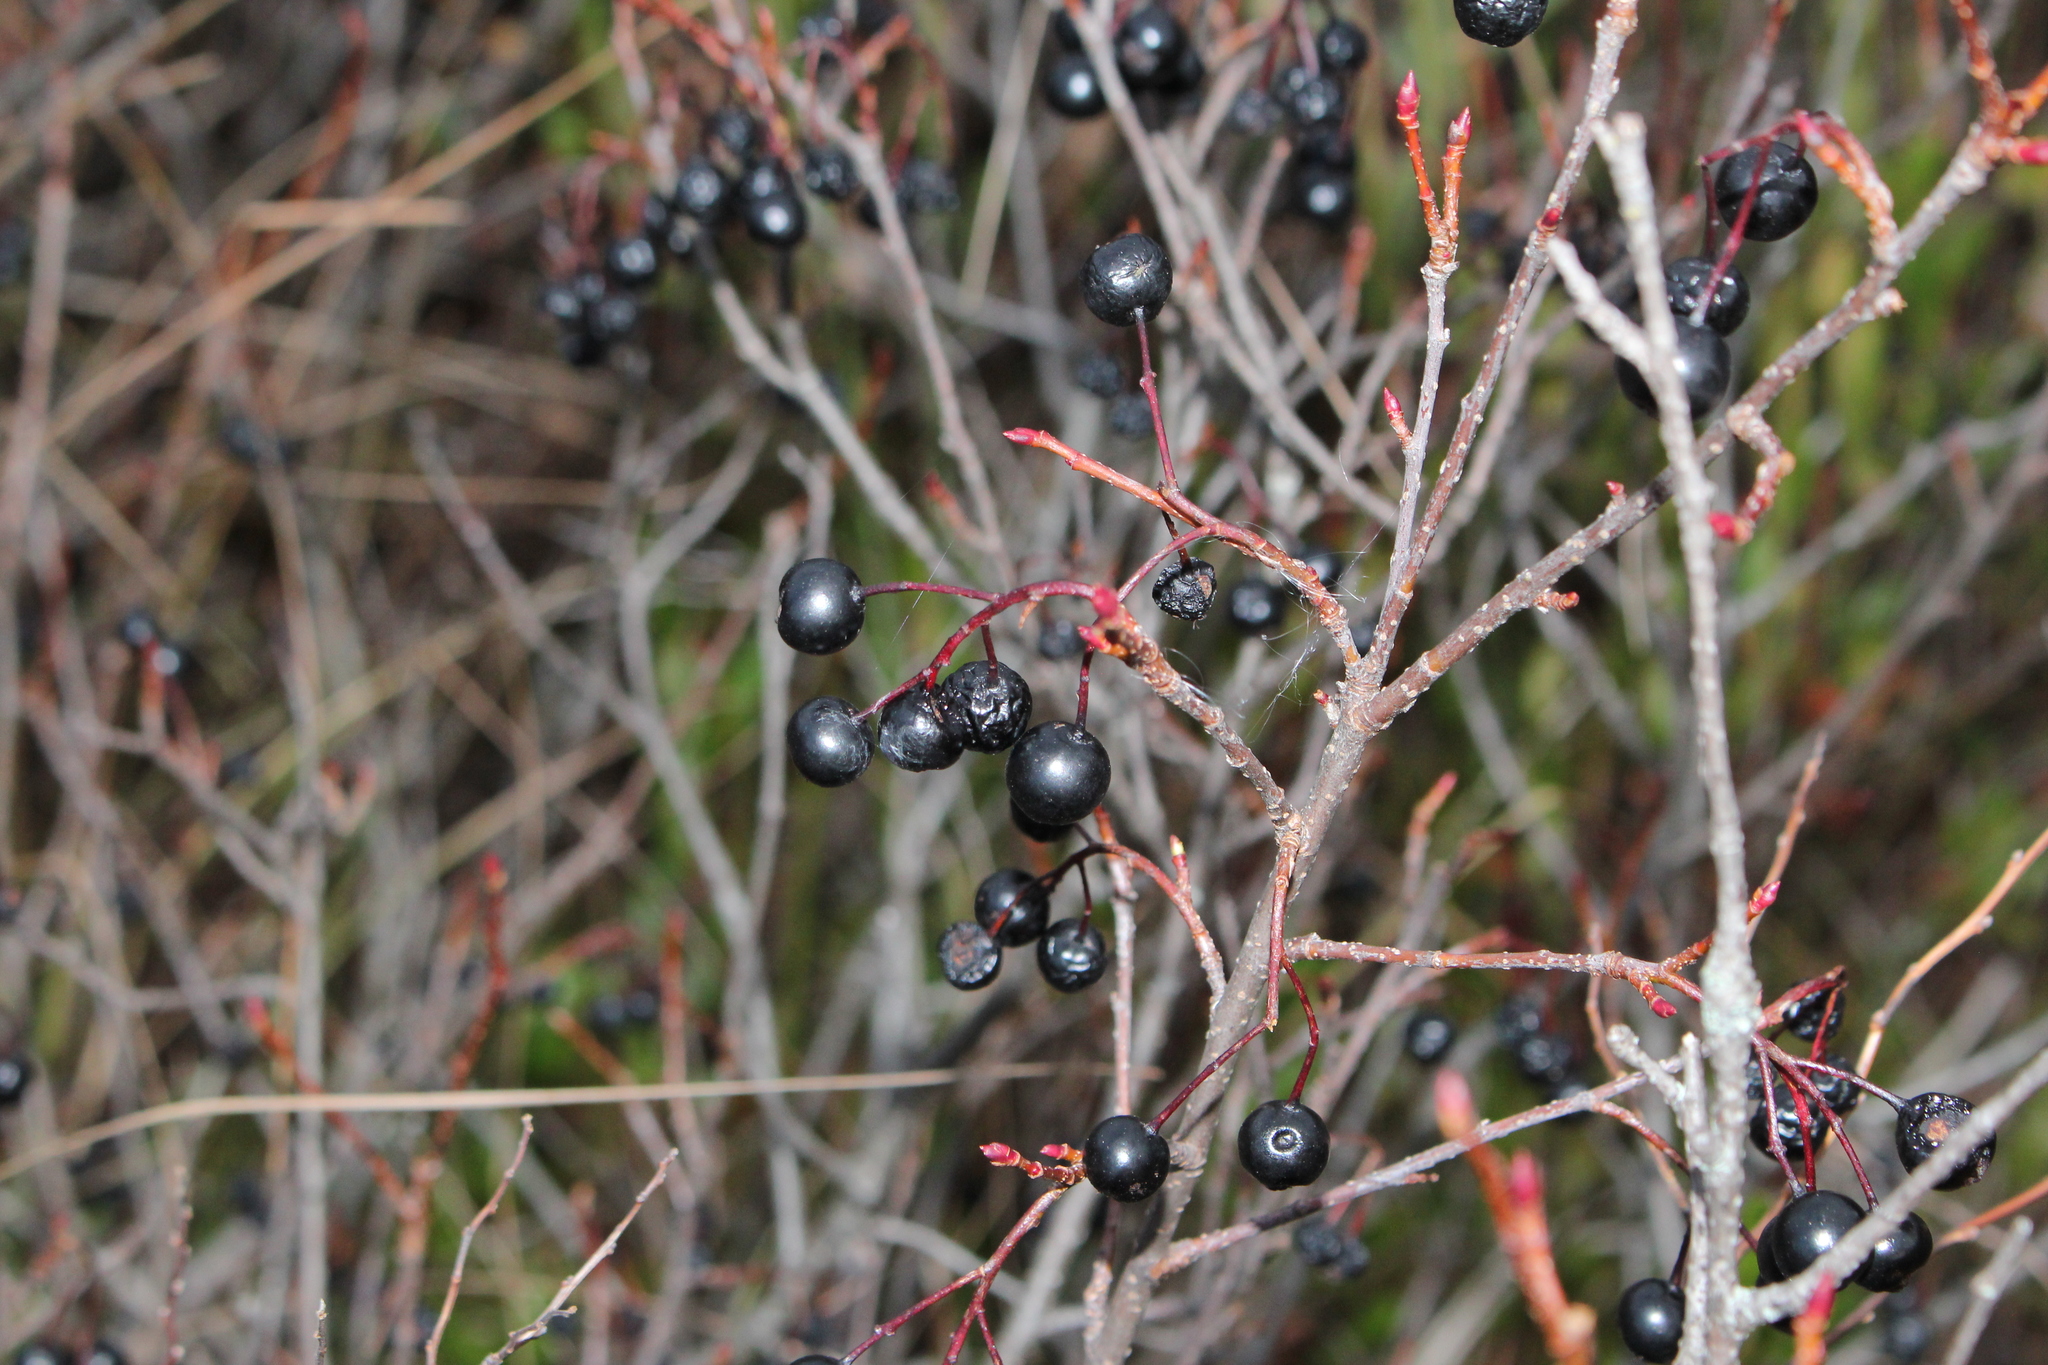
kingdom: Plantae
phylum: Tracheophyta
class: Magnoliopsida
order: Rosales
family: Rosaceae
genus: Aronia
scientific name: Aronia melanocarpa
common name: Black chokeberry
